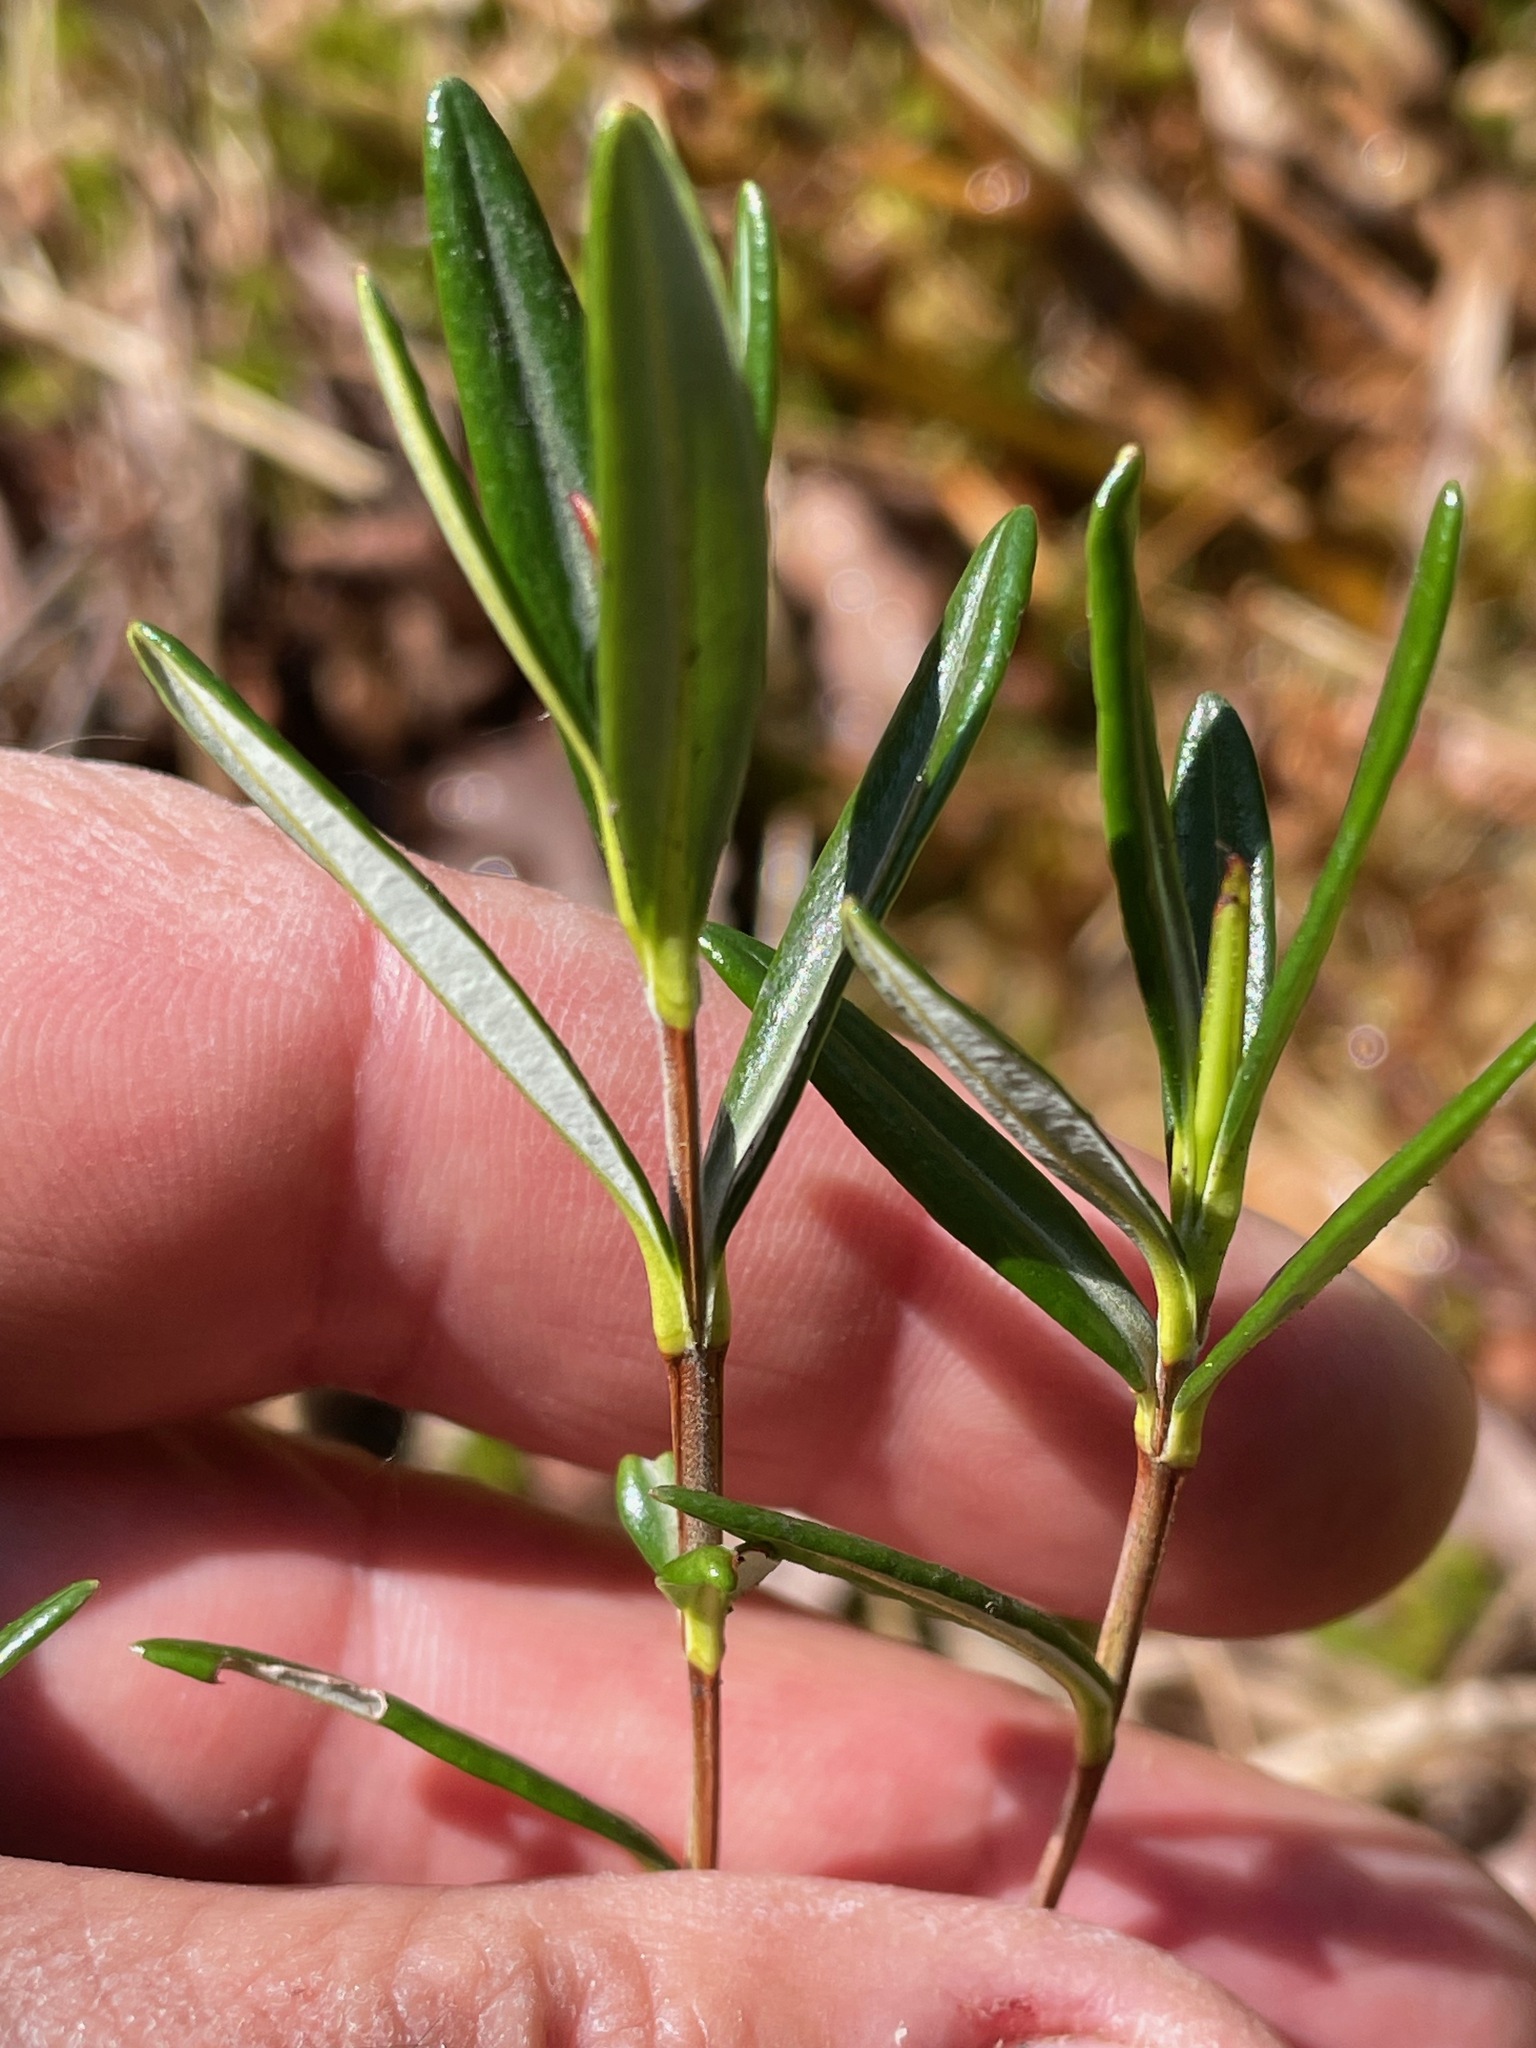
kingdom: Plantae
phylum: Tracheophyta
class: Magnoliopsida
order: Ericales
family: Ericaceae
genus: Kalmia
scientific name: Kalmia polifolia
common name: Bog-laurel
